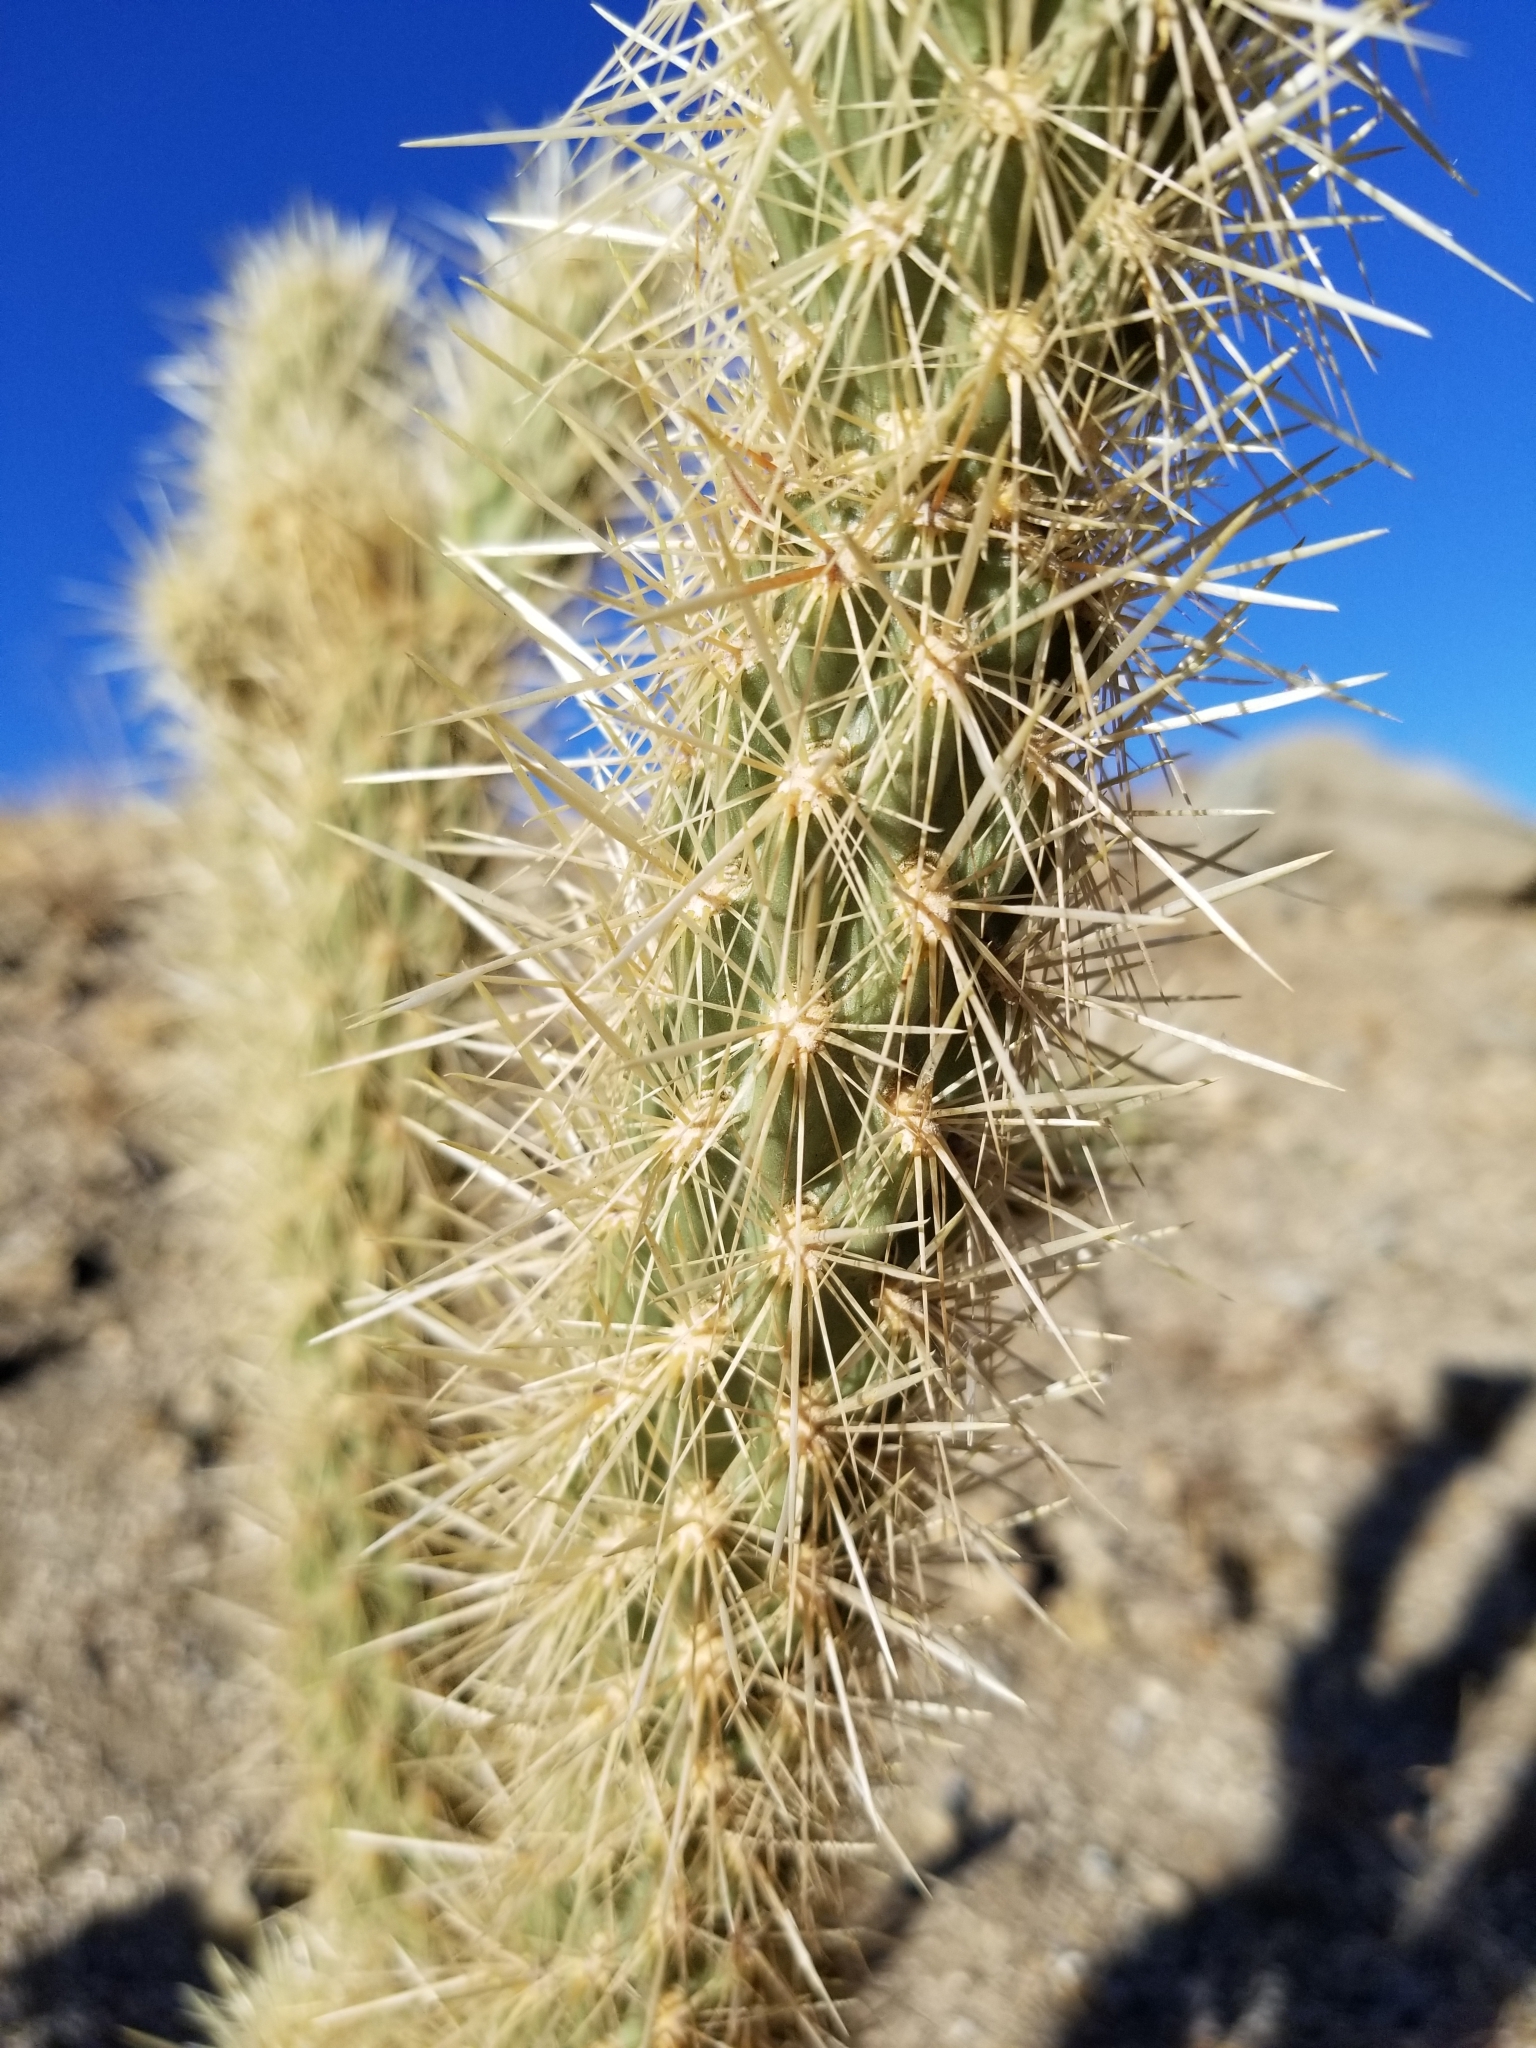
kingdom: Plantae
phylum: Tracheophyta
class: Magnoliopsida
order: Caryophyllales
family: Cactaceae
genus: Cylindropuntia
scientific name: Cylindropuntia ganderi
